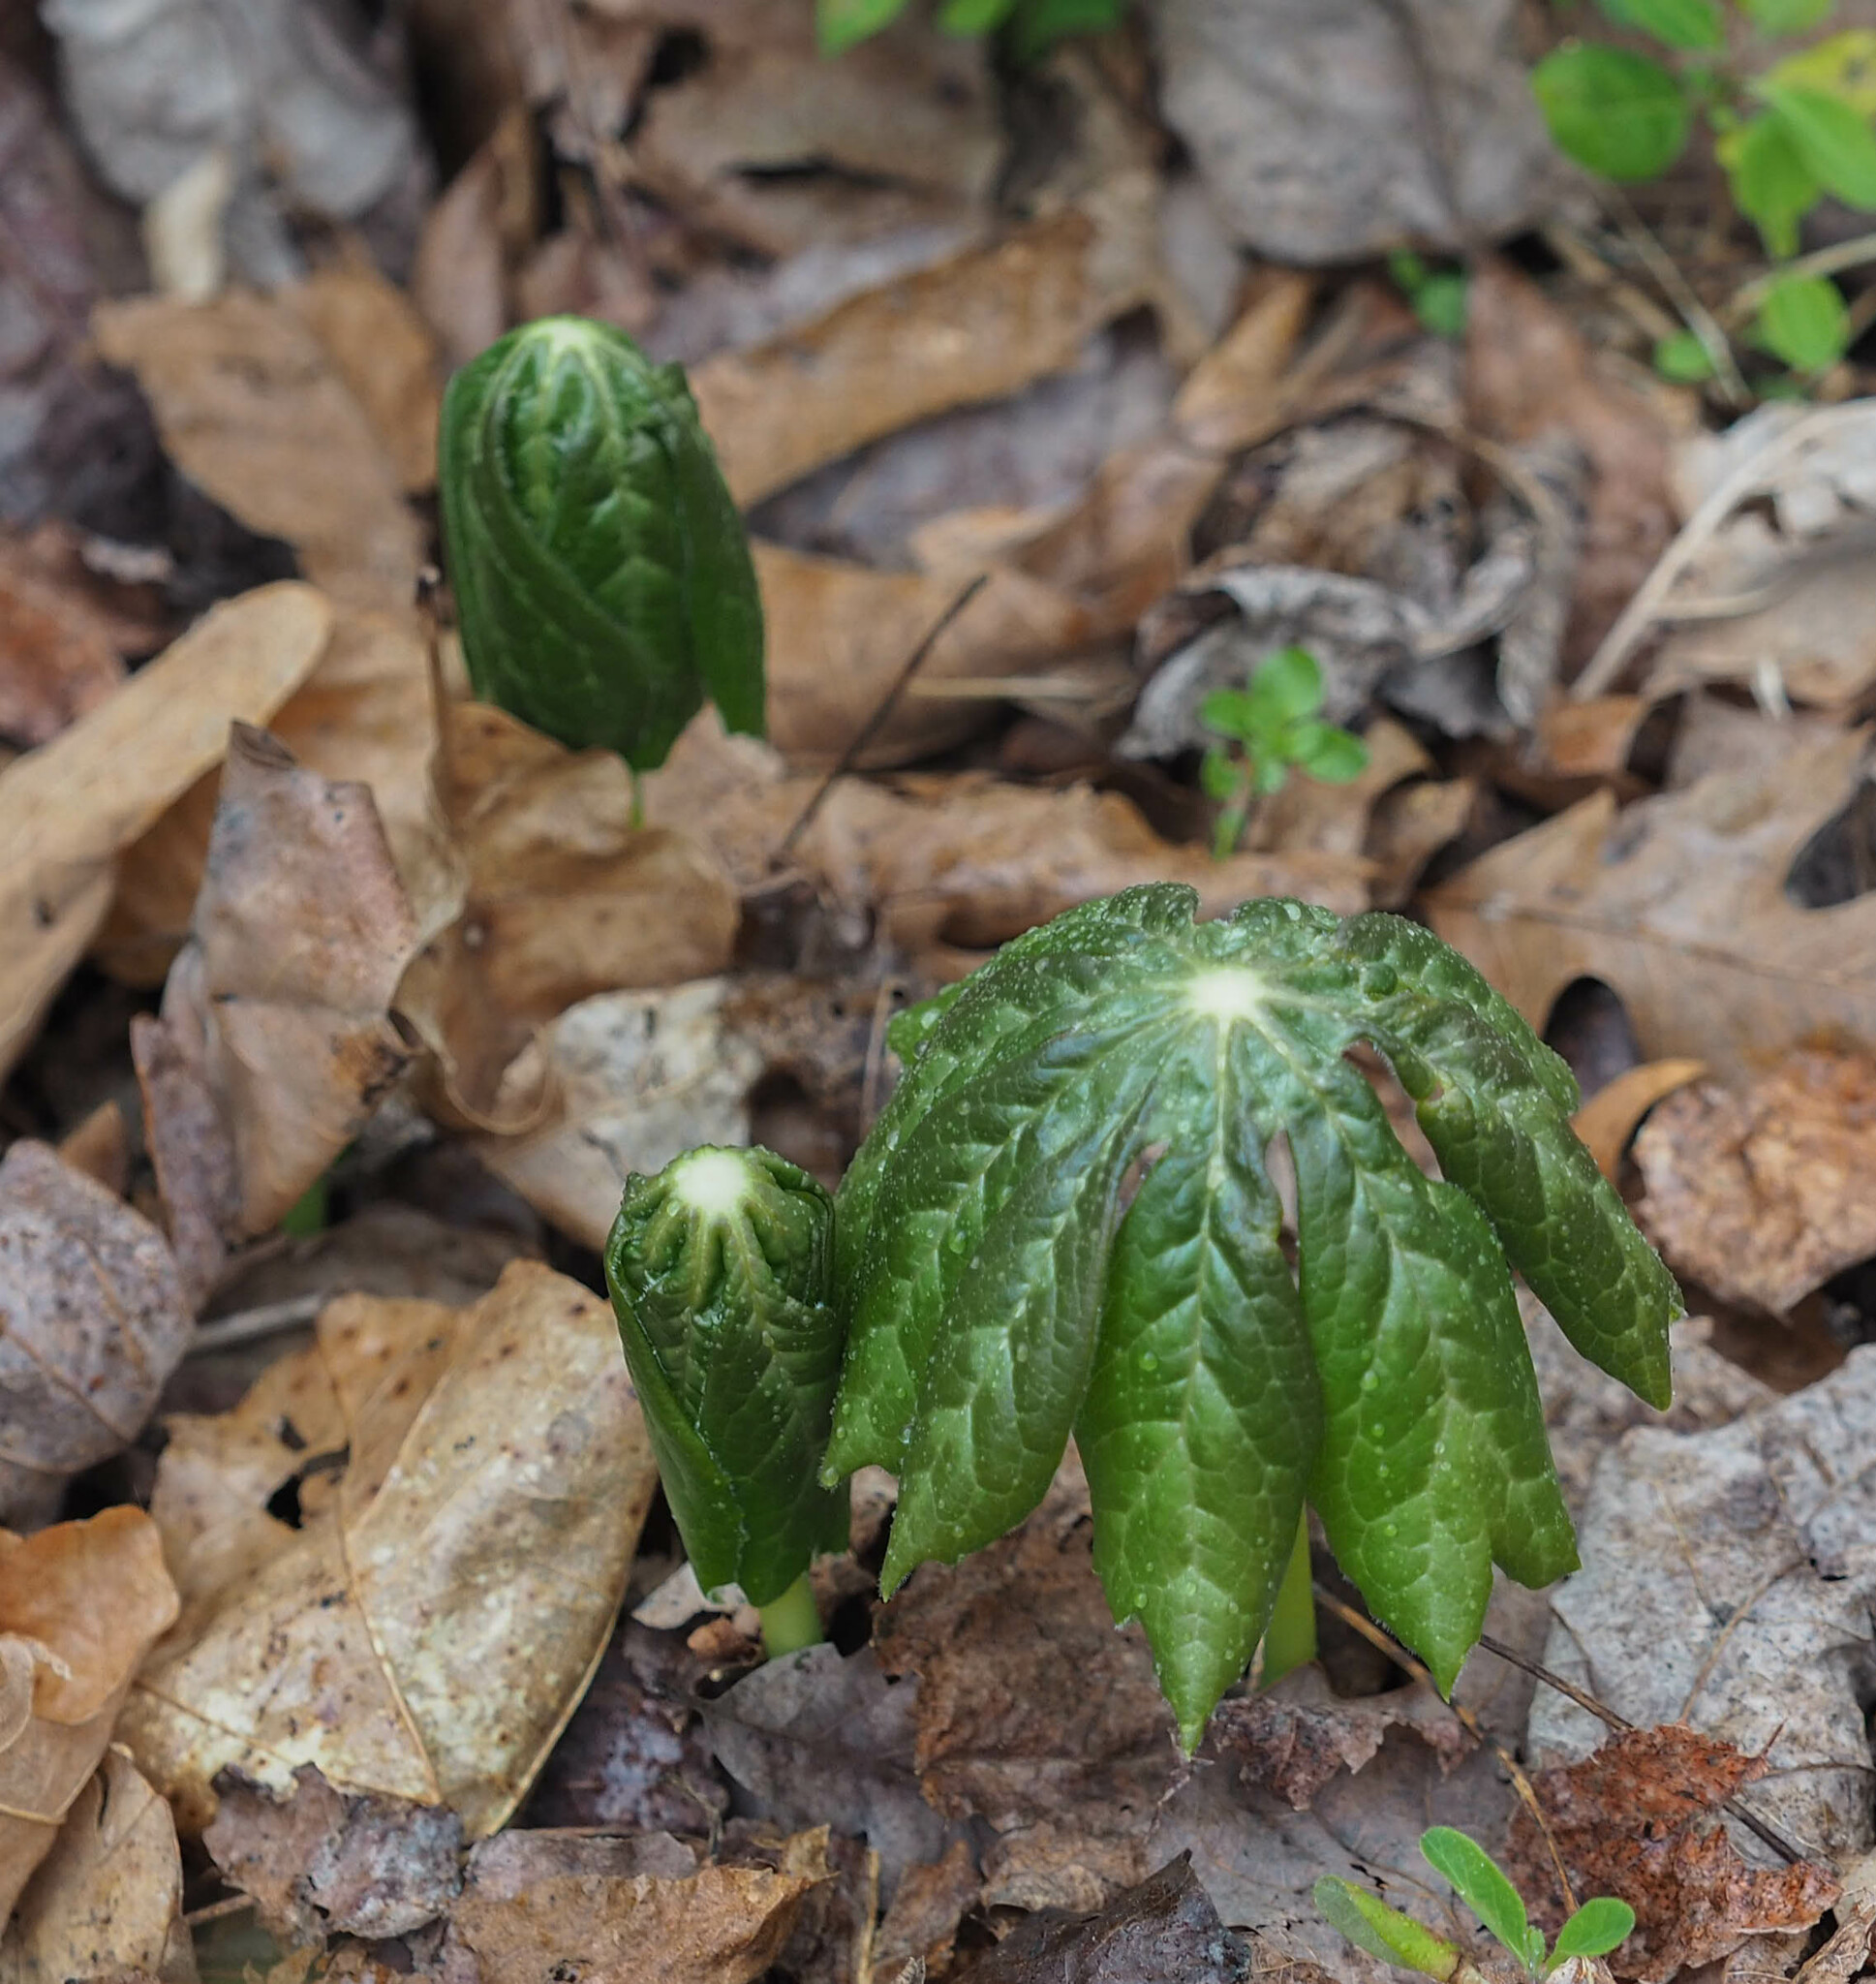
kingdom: Plantae
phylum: Tracheophyta
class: Magnoliopsida
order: Ranunculales
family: Berberidaceae
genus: Podophyllum
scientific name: Podophyllum peltatum
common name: Wild mandrake
